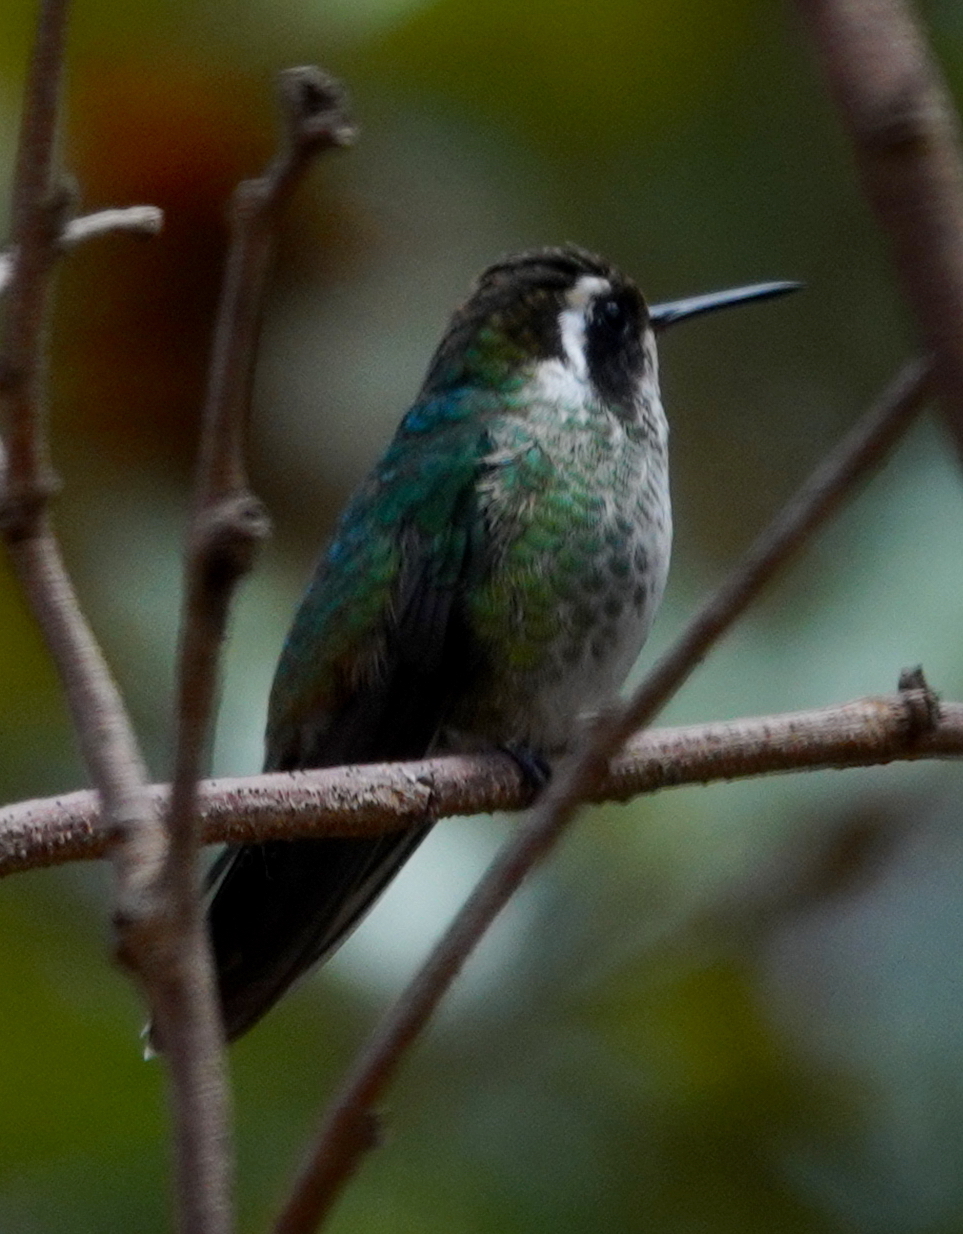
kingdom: Animalia
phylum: Chordata
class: Aves
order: Apodiformes
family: Trochilidae
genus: Basilinna
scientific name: Basilinna leucotis
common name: White-eared hummingbird
